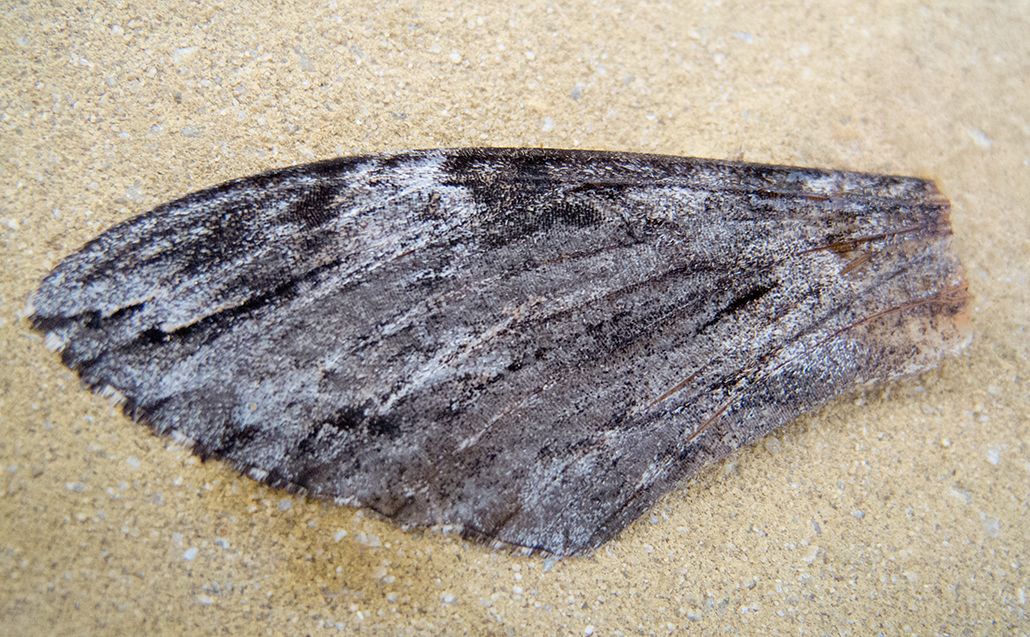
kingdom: Animalia
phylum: Arthropoda
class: Insecta
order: Lepidoptera
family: Sphingidae
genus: Agrius
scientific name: Agrius convolvuli
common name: Convolvulus hawkmoth
